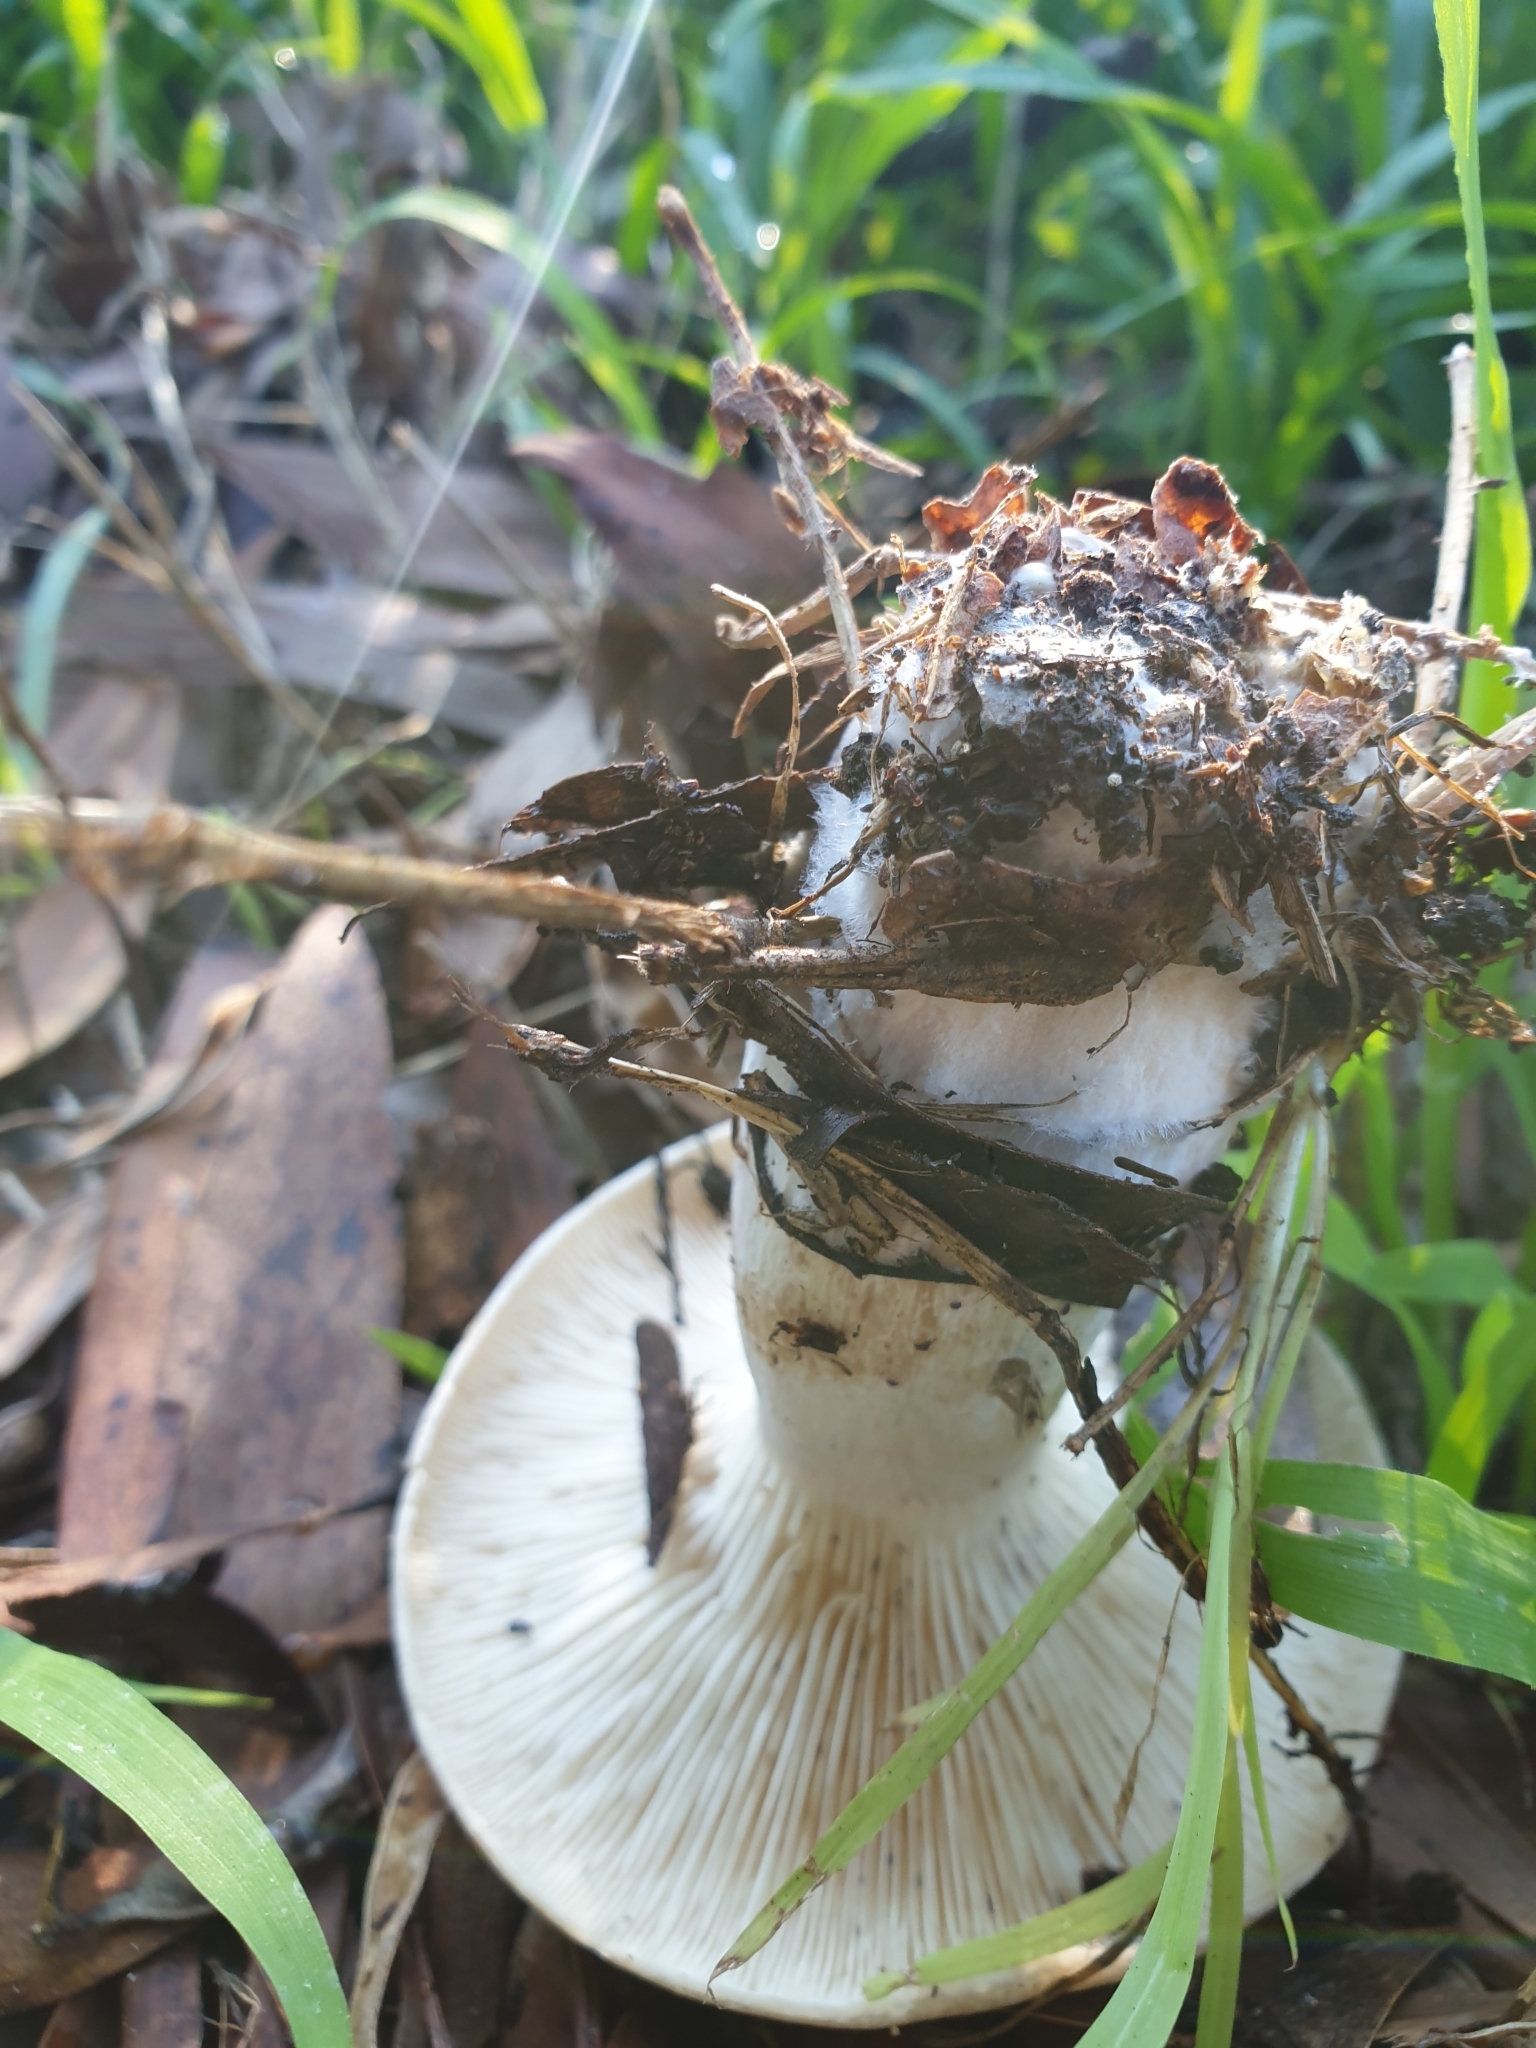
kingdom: Fungi
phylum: Basidiomycota
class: Agaricomycetes
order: Agaricales
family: Tricholomataceae
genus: Clitocybe
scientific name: Clitocybe nebularis
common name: Clouded agaric
